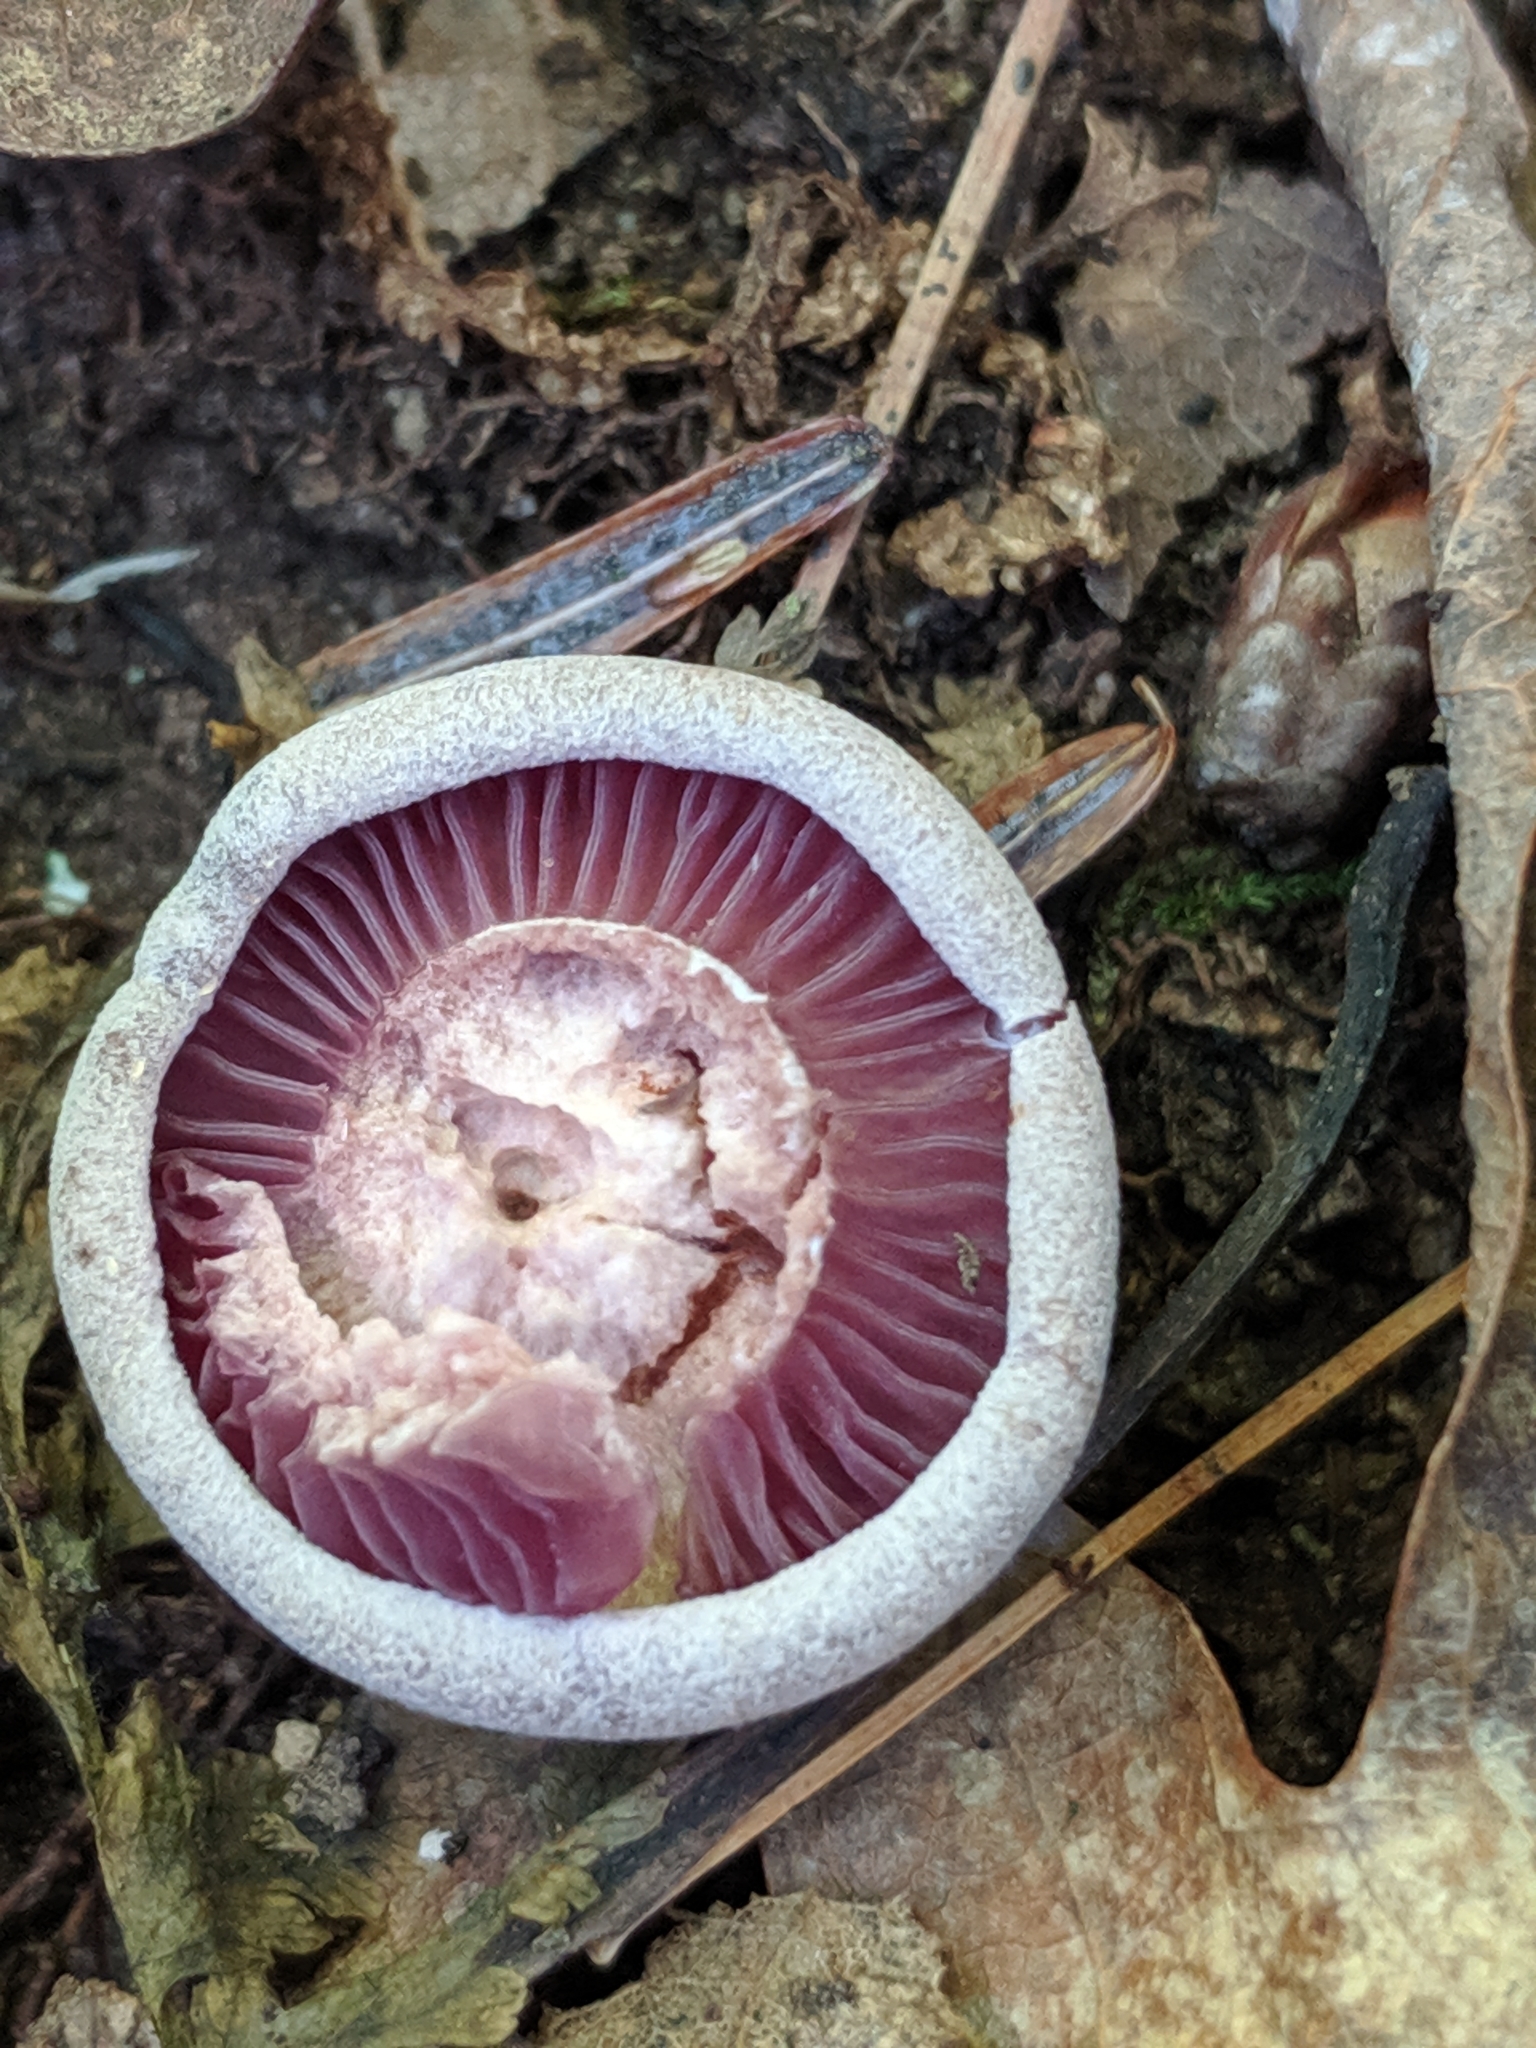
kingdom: Fungi
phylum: Basidiomycota
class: Agaricomycetes
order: Agaricales
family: Hydnangiaceae
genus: Laccaria
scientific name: Laccaria ochropurpurea
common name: Purple laccaria
